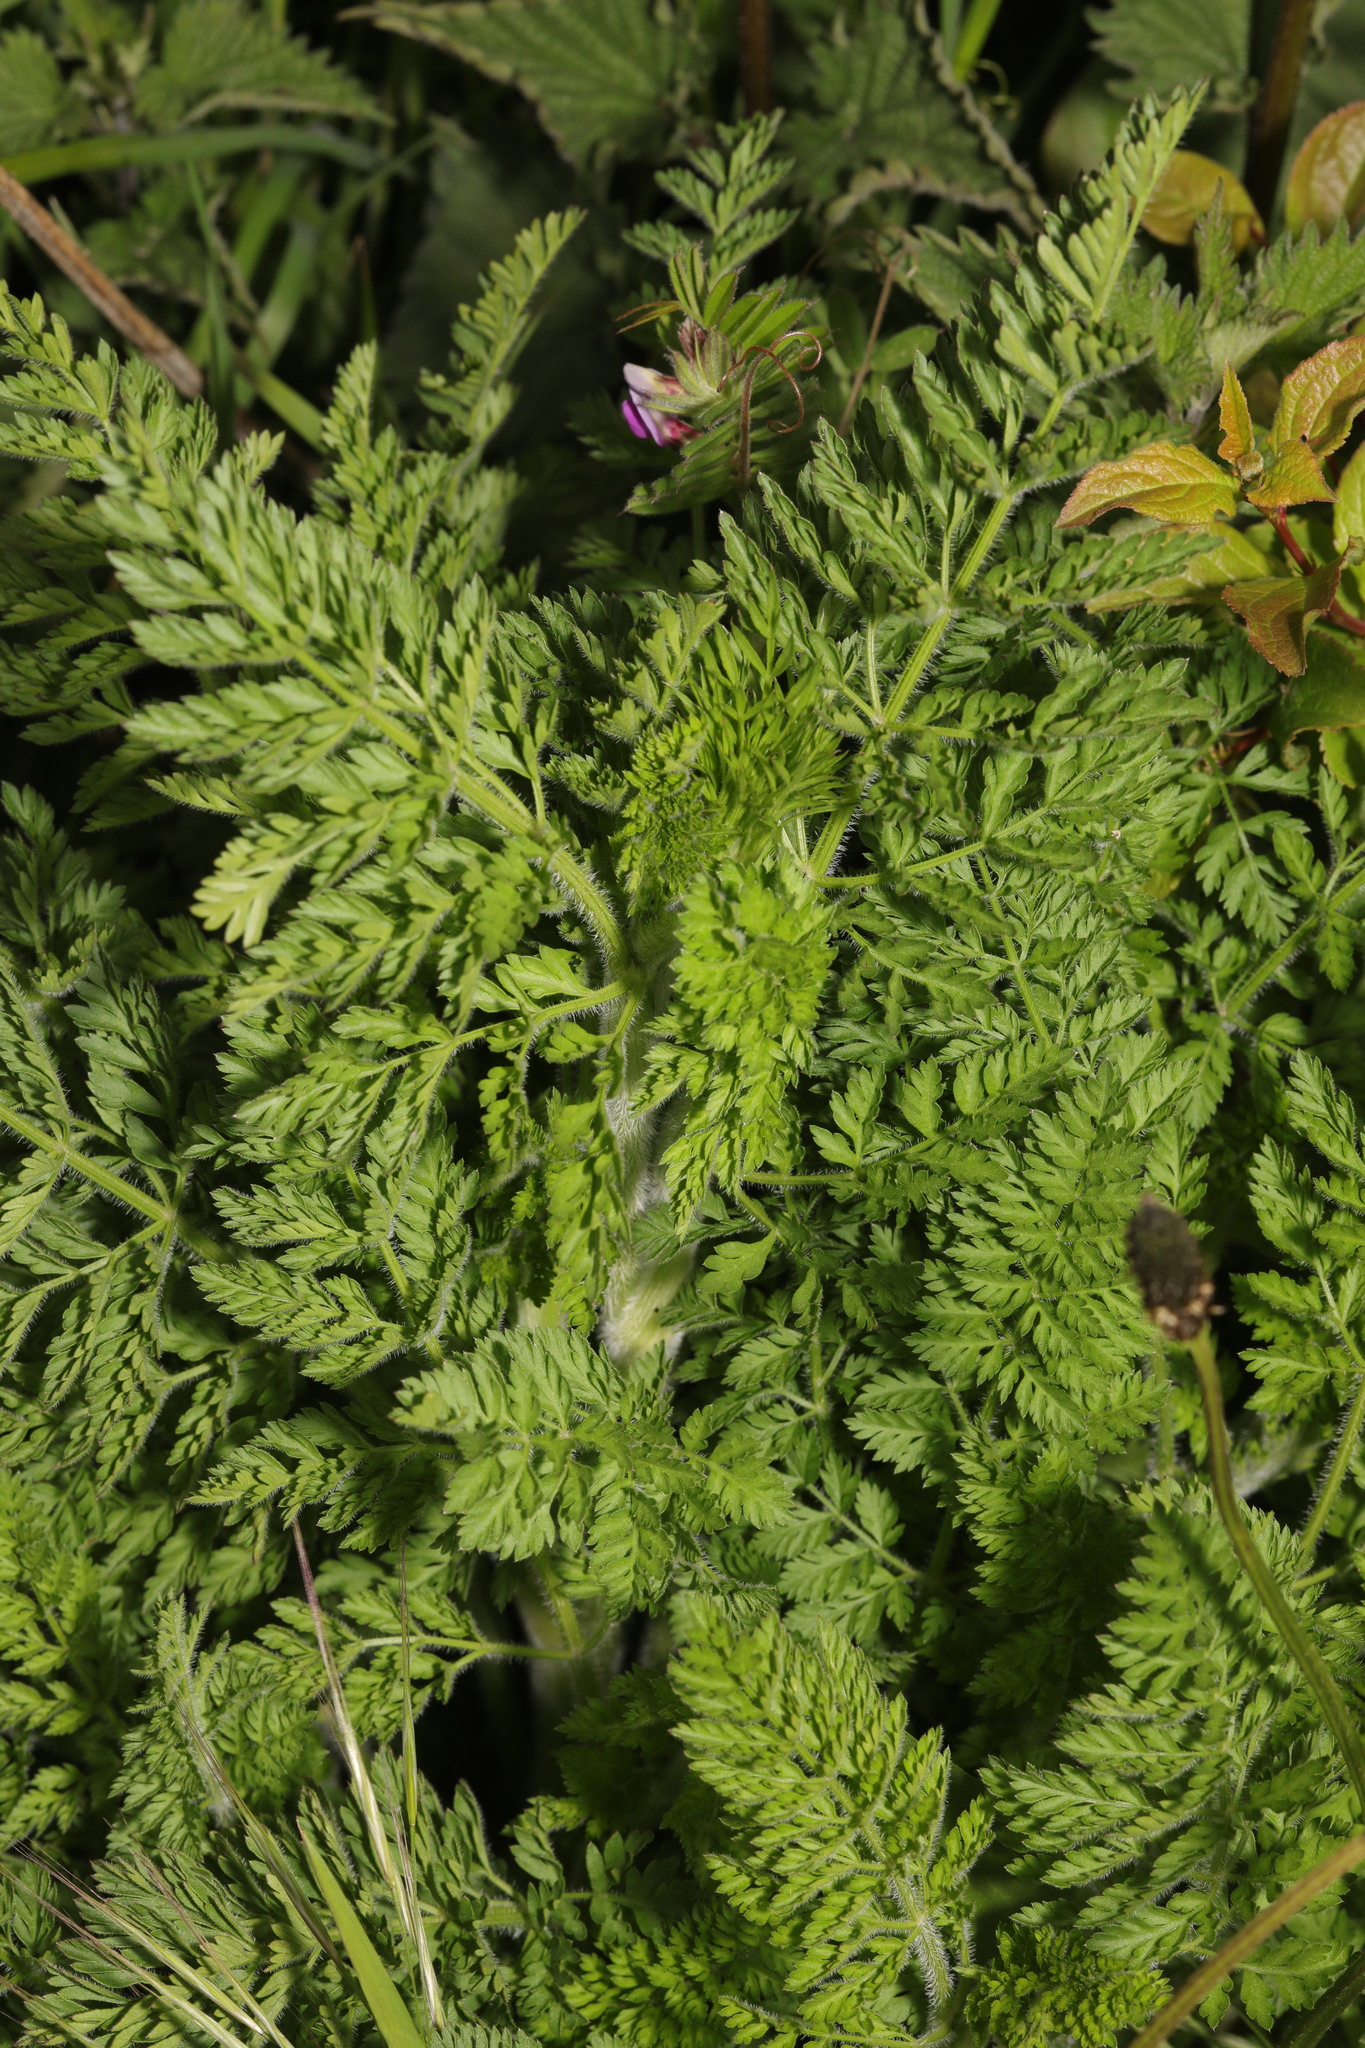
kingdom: Plantae
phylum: Tracheophyta
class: Magnoliopsida
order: Apiales
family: Apiaceae
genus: Daucus
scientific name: Daucus carota
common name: Wild carrot
